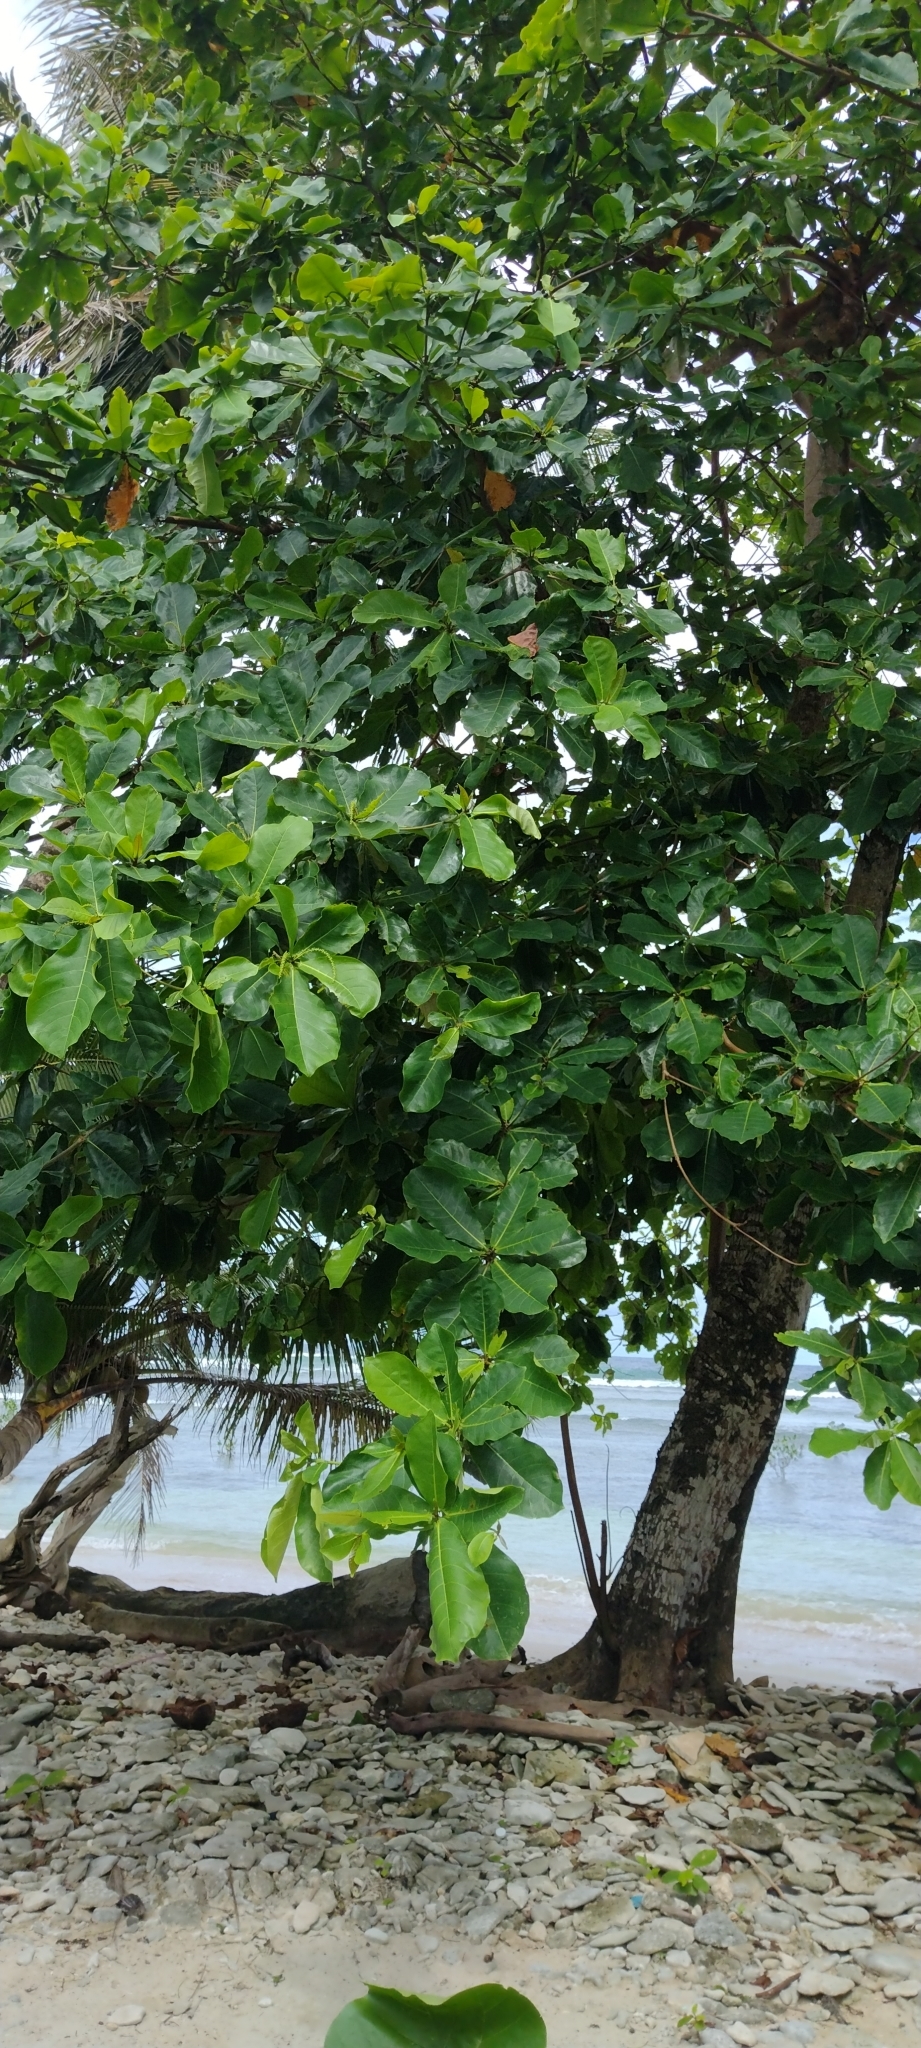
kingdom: Plantae
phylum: Tracheophyta
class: Magnoliopsida
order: Myrtales
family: Combretaceae
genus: Terminalia
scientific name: Terminalia catappa
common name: Tropical almond
